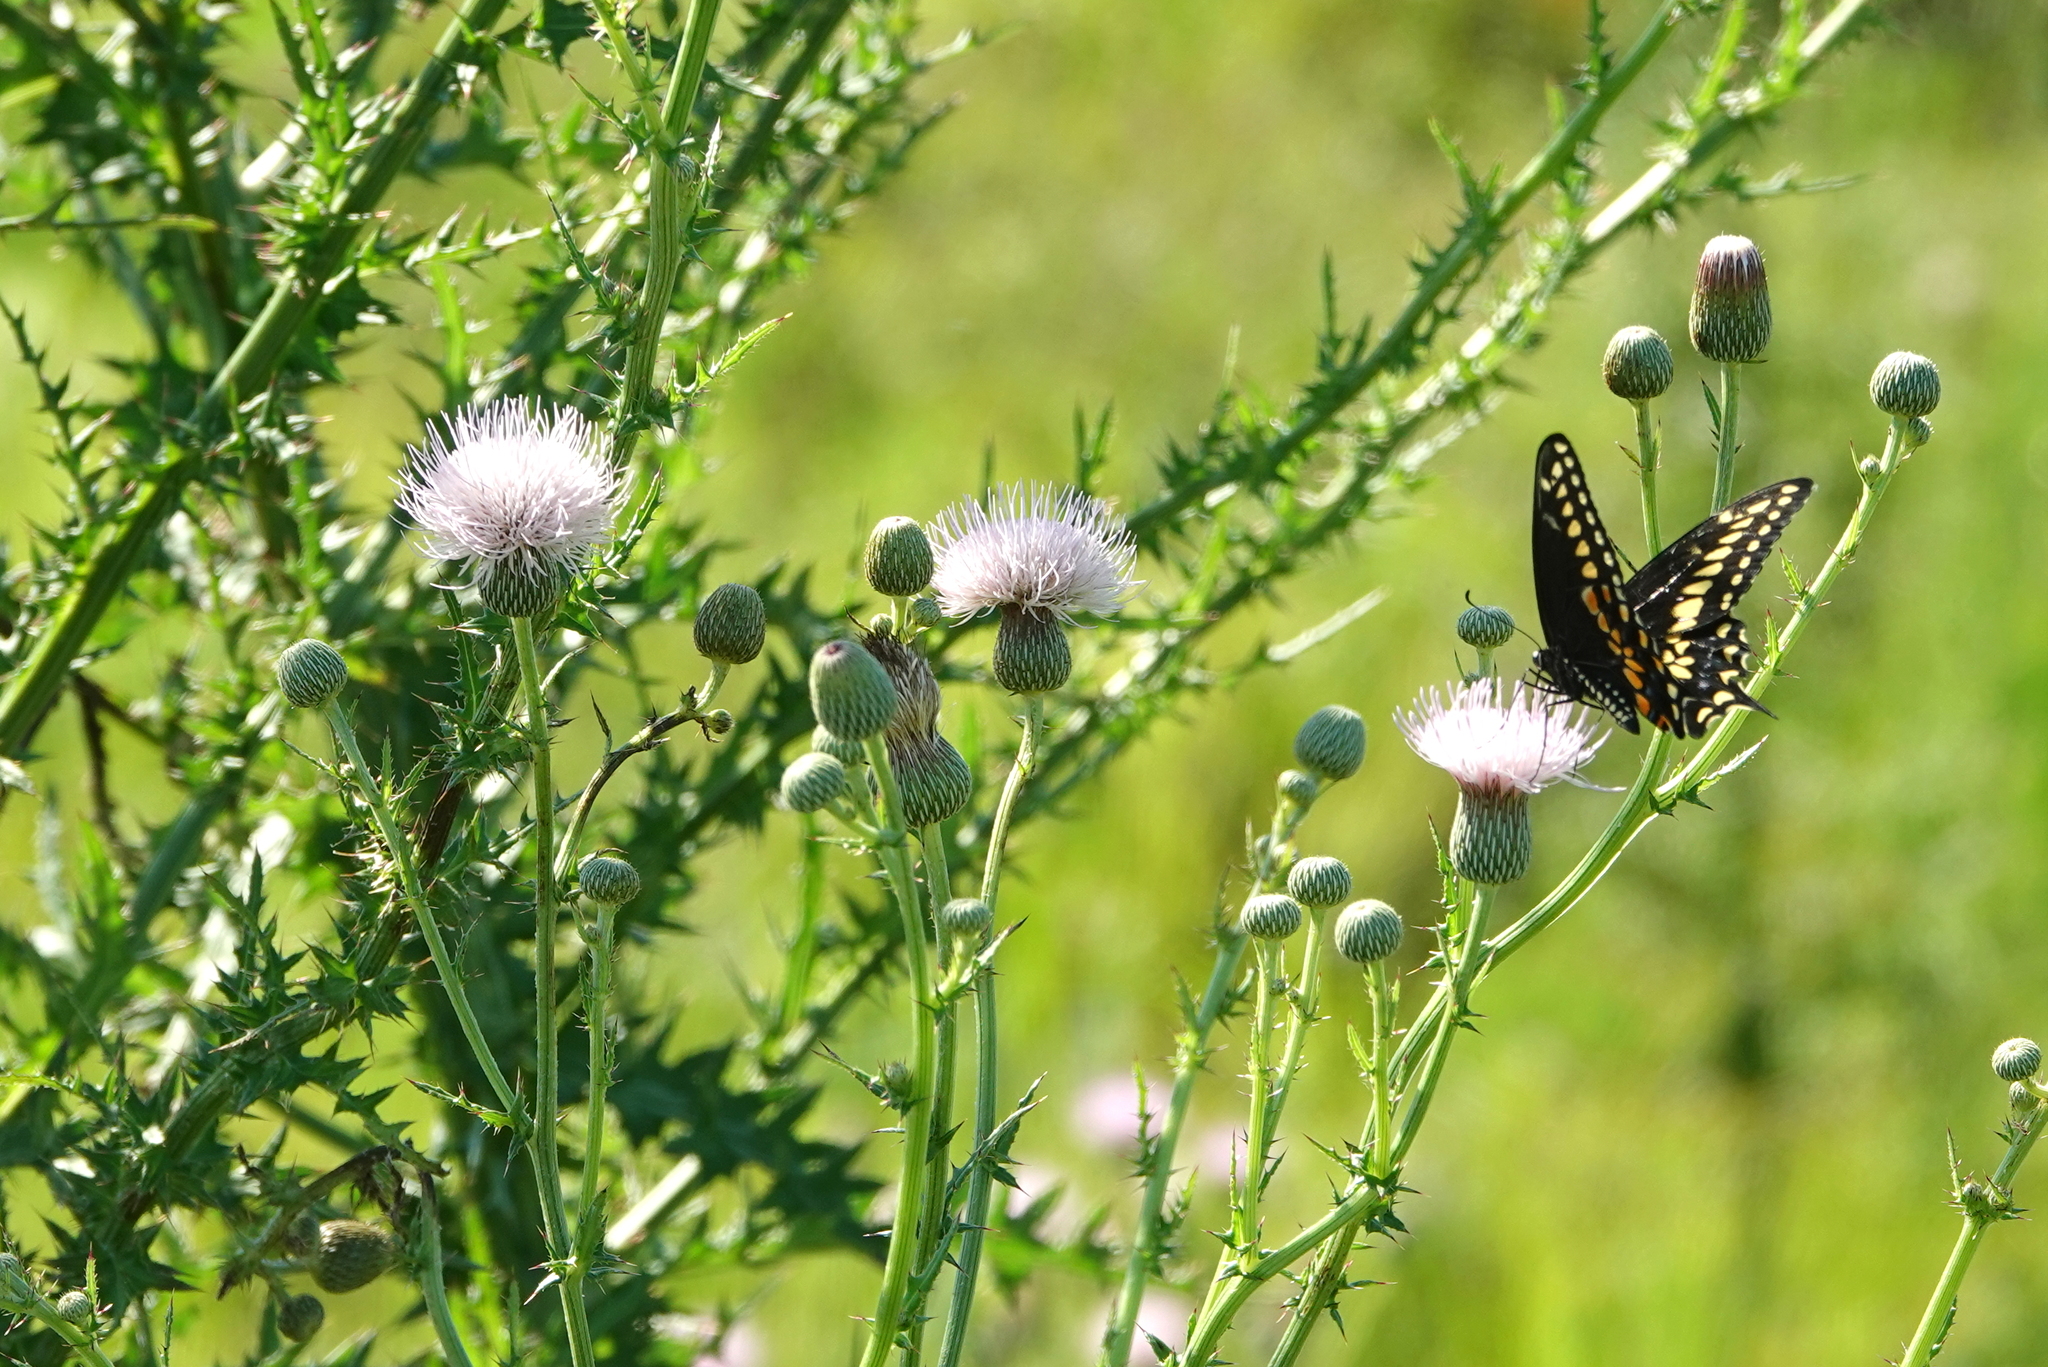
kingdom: Plantae
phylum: Tracheophyta
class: Magnoliopsida
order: Asterales
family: Asteraceae
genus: Cirsium
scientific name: Cirsium nuttalii
